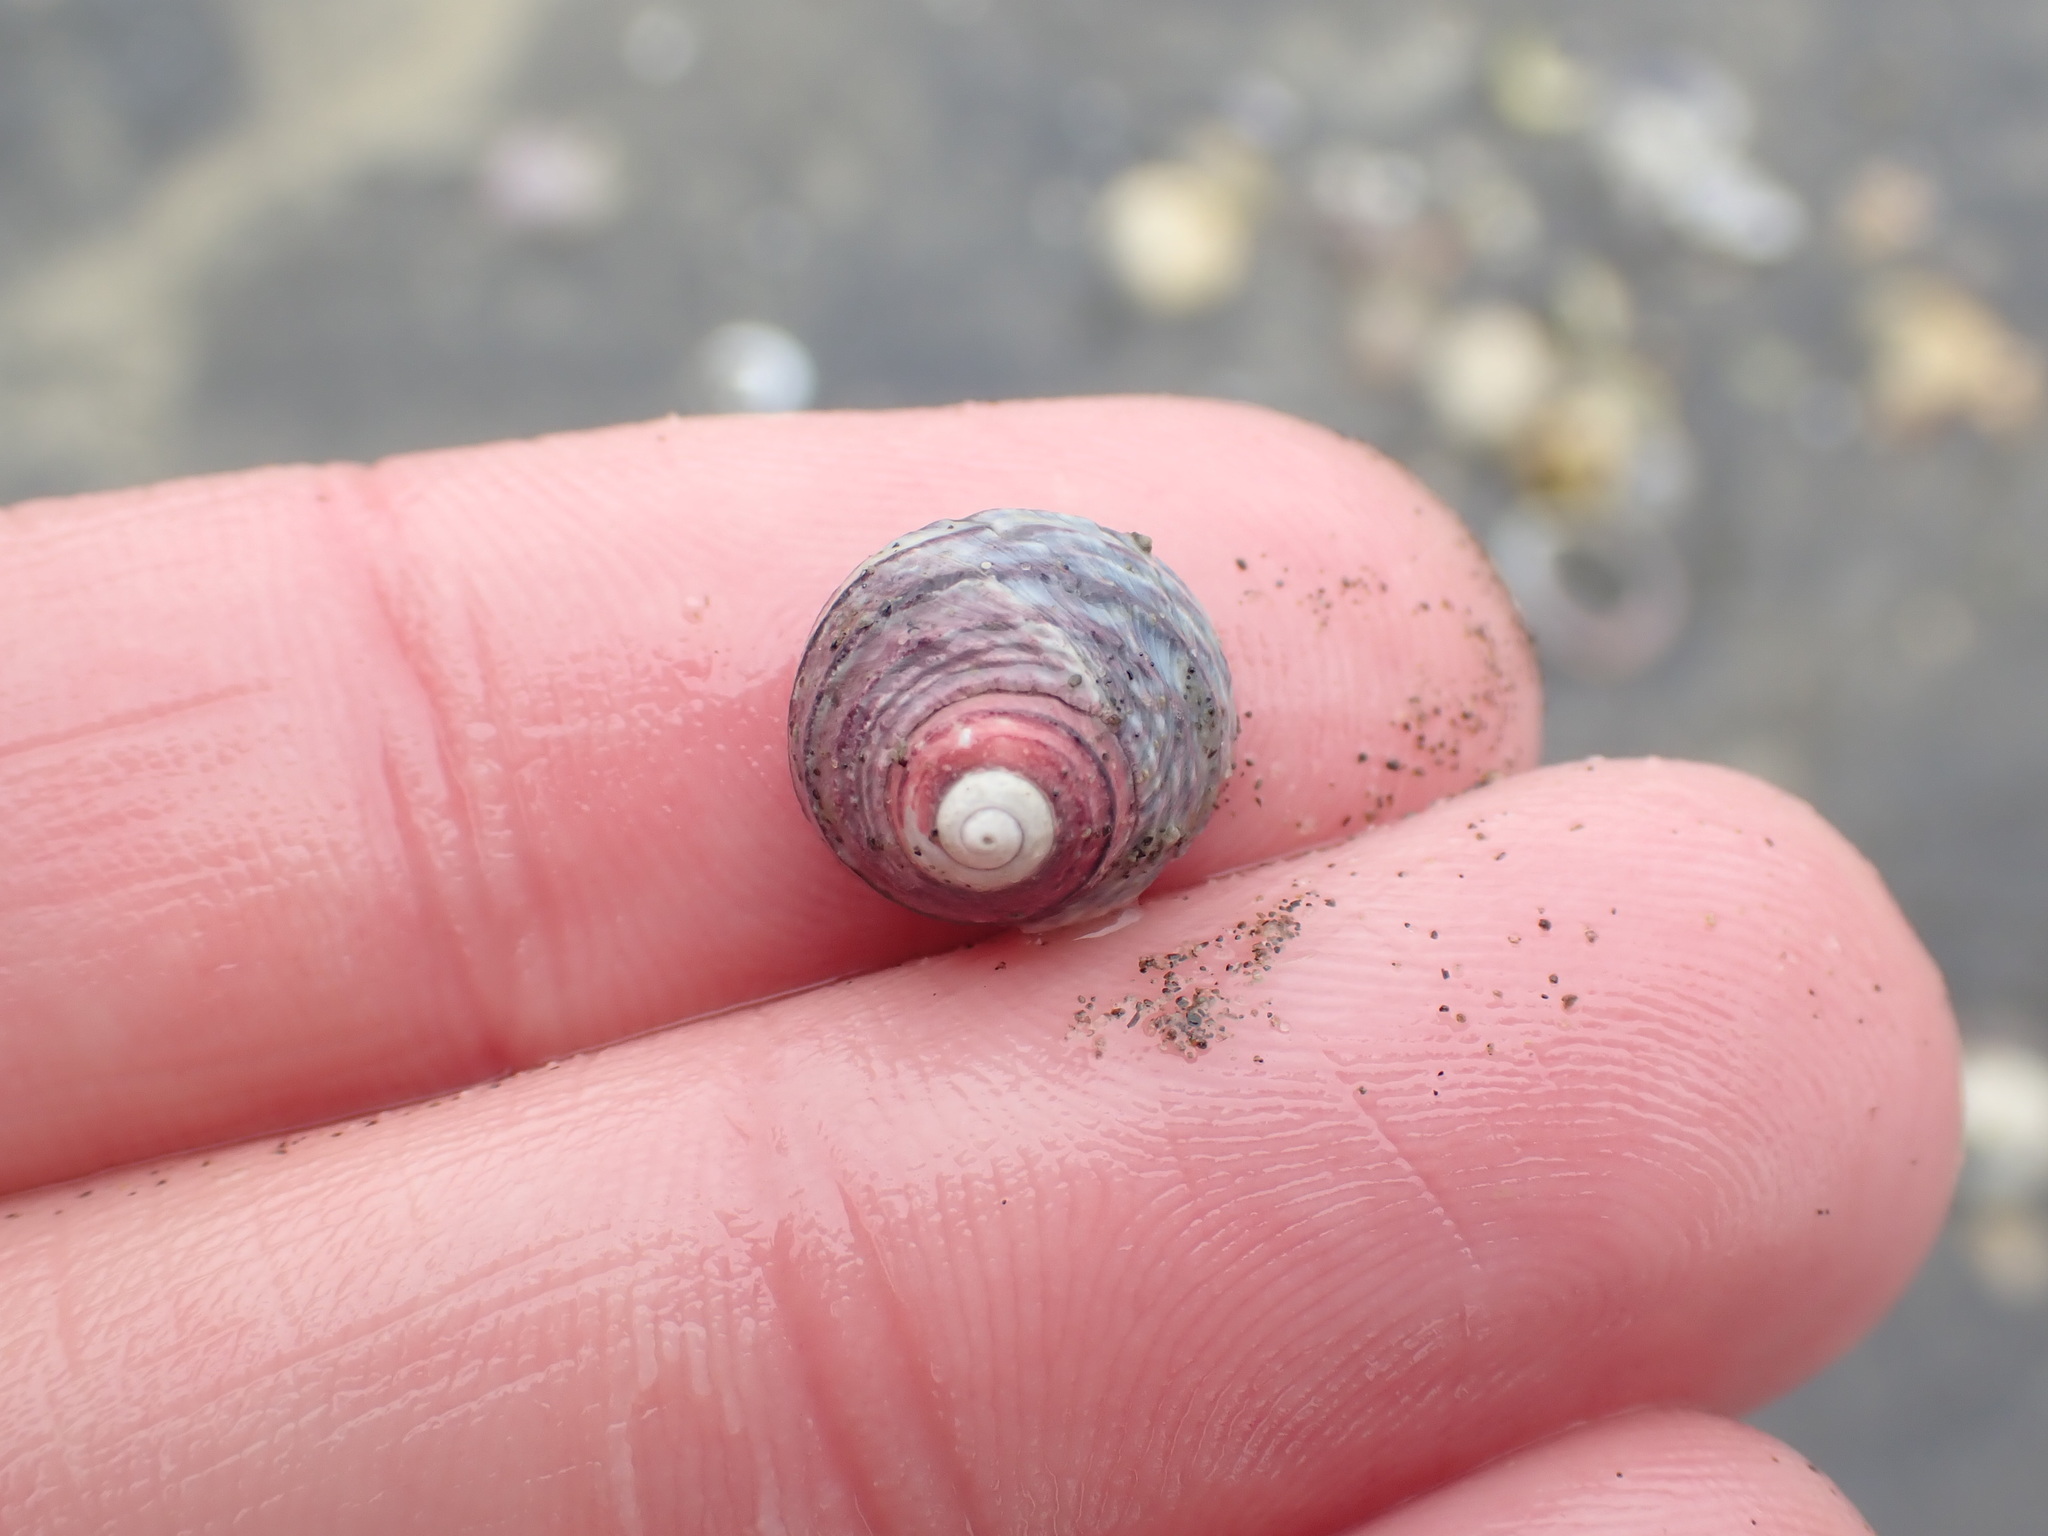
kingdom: Animalia
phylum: Mollusca
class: Gastropoda
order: Trochida
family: Trochidae
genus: Diloma
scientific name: Diloma subrostratum
